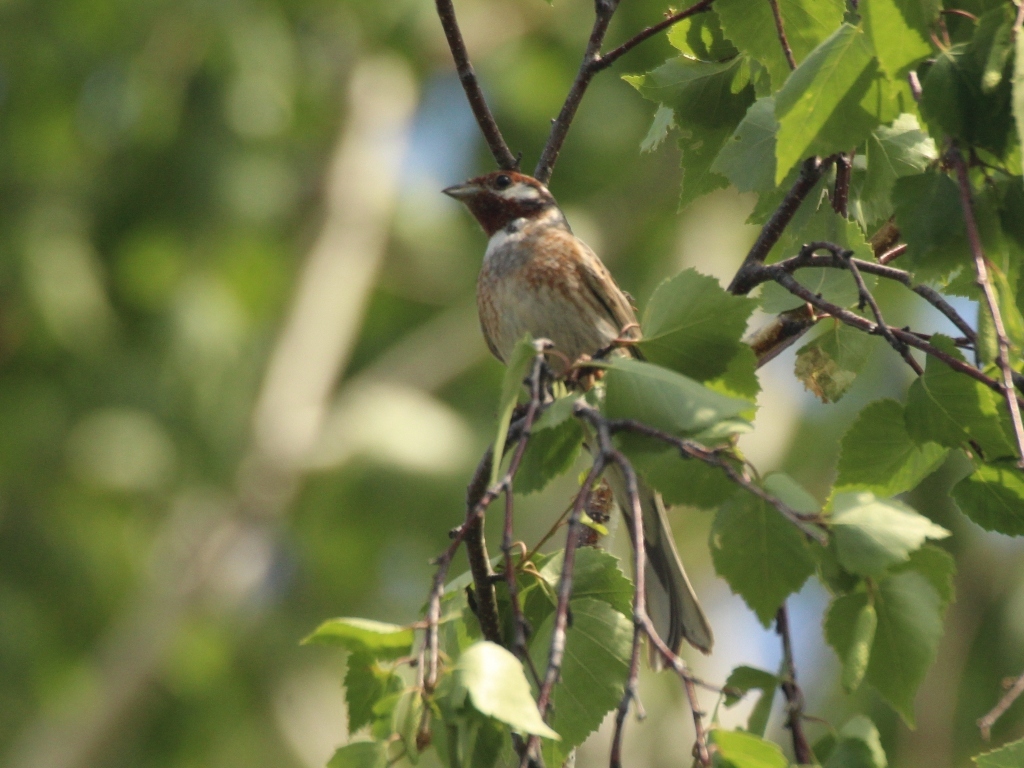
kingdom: Animalia
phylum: Chordata
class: Aves
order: Passeriformes
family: Emberizidae
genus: Emberiza
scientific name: Emberiza leucocephalos
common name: Pine bunting
